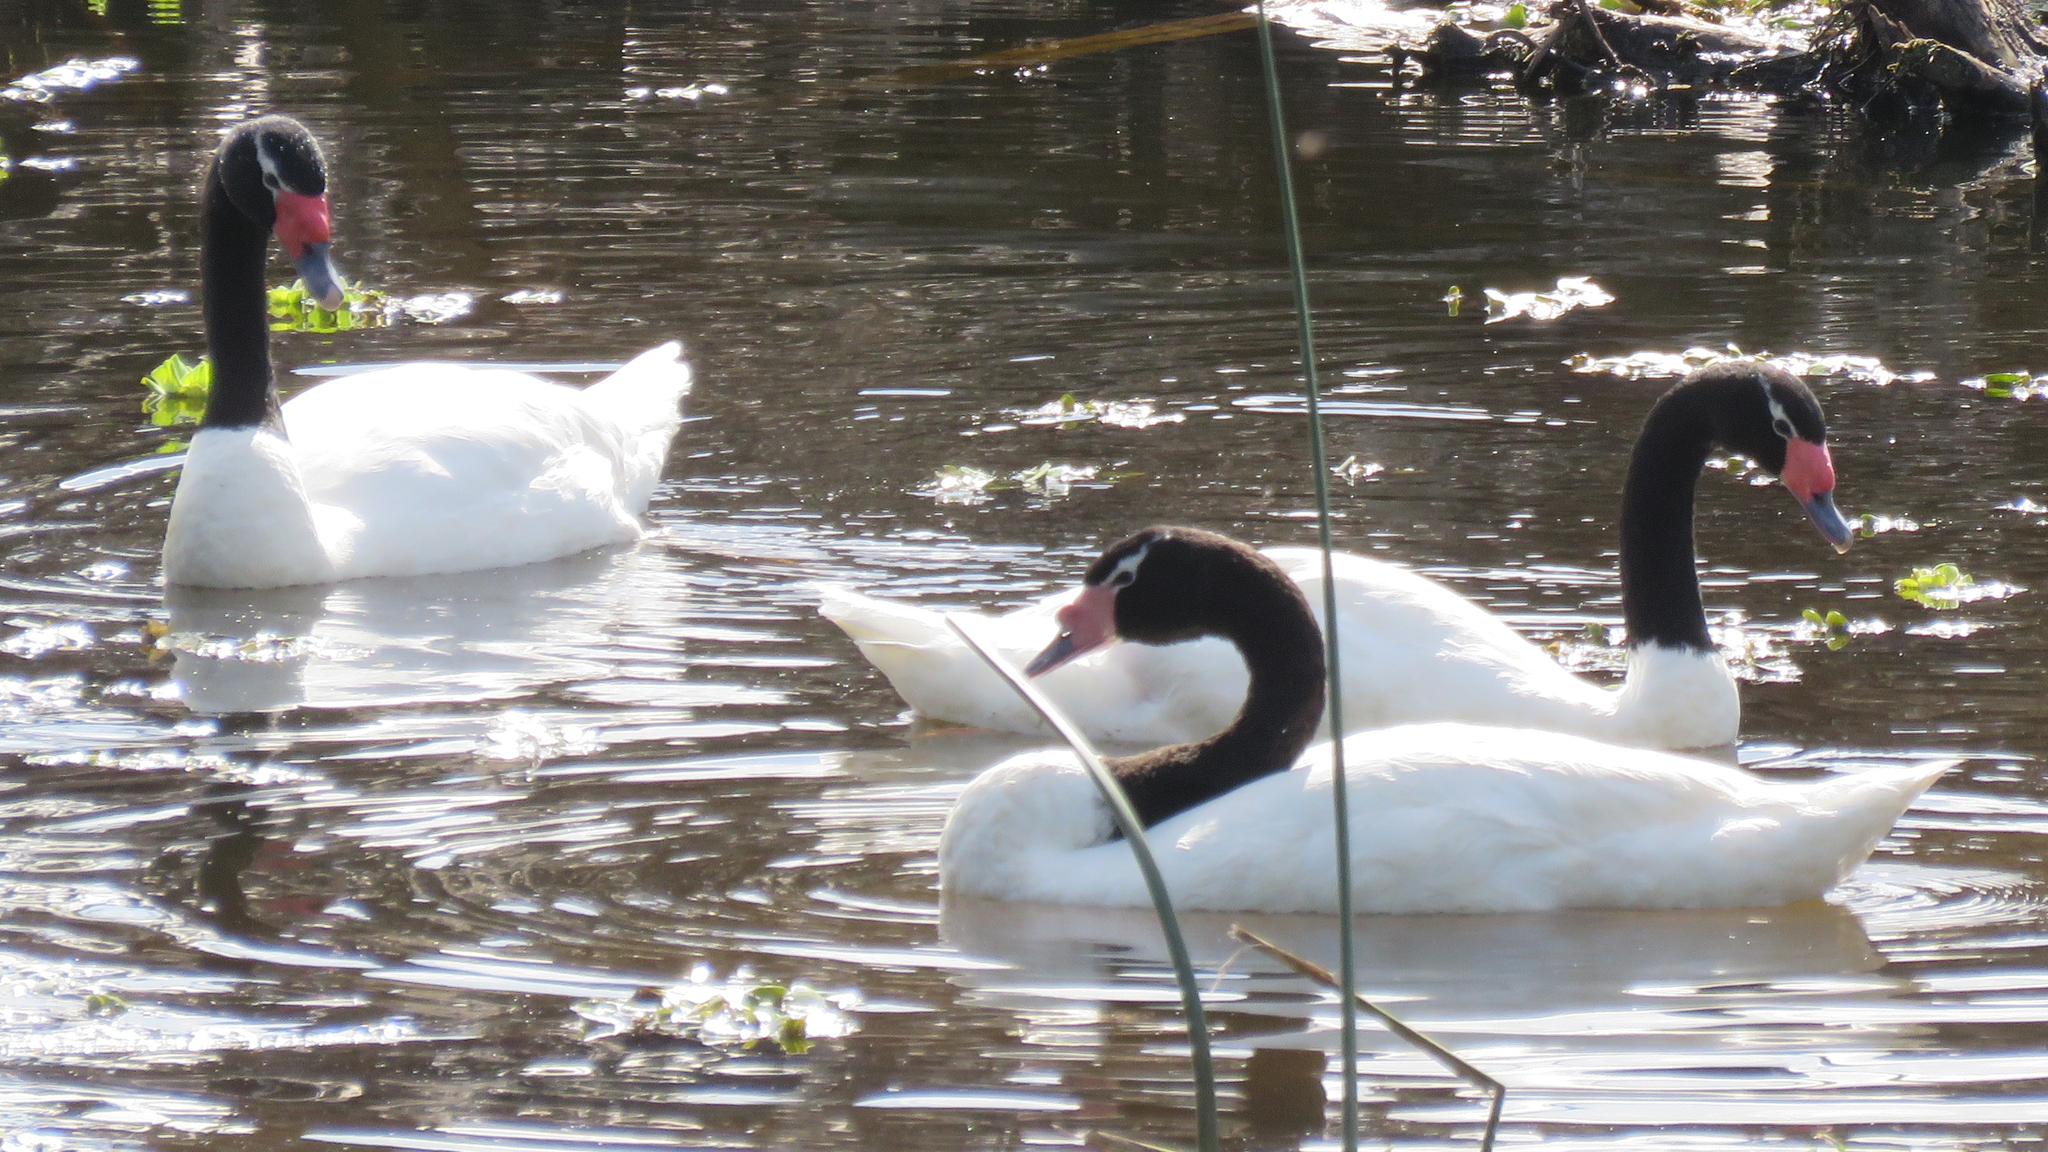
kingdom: Animalia
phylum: Chordata
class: Aves
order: Anseriformes
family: Anatidae
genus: Cygnus
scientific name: Cygnus melancoryphus
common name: Black-necked swan
